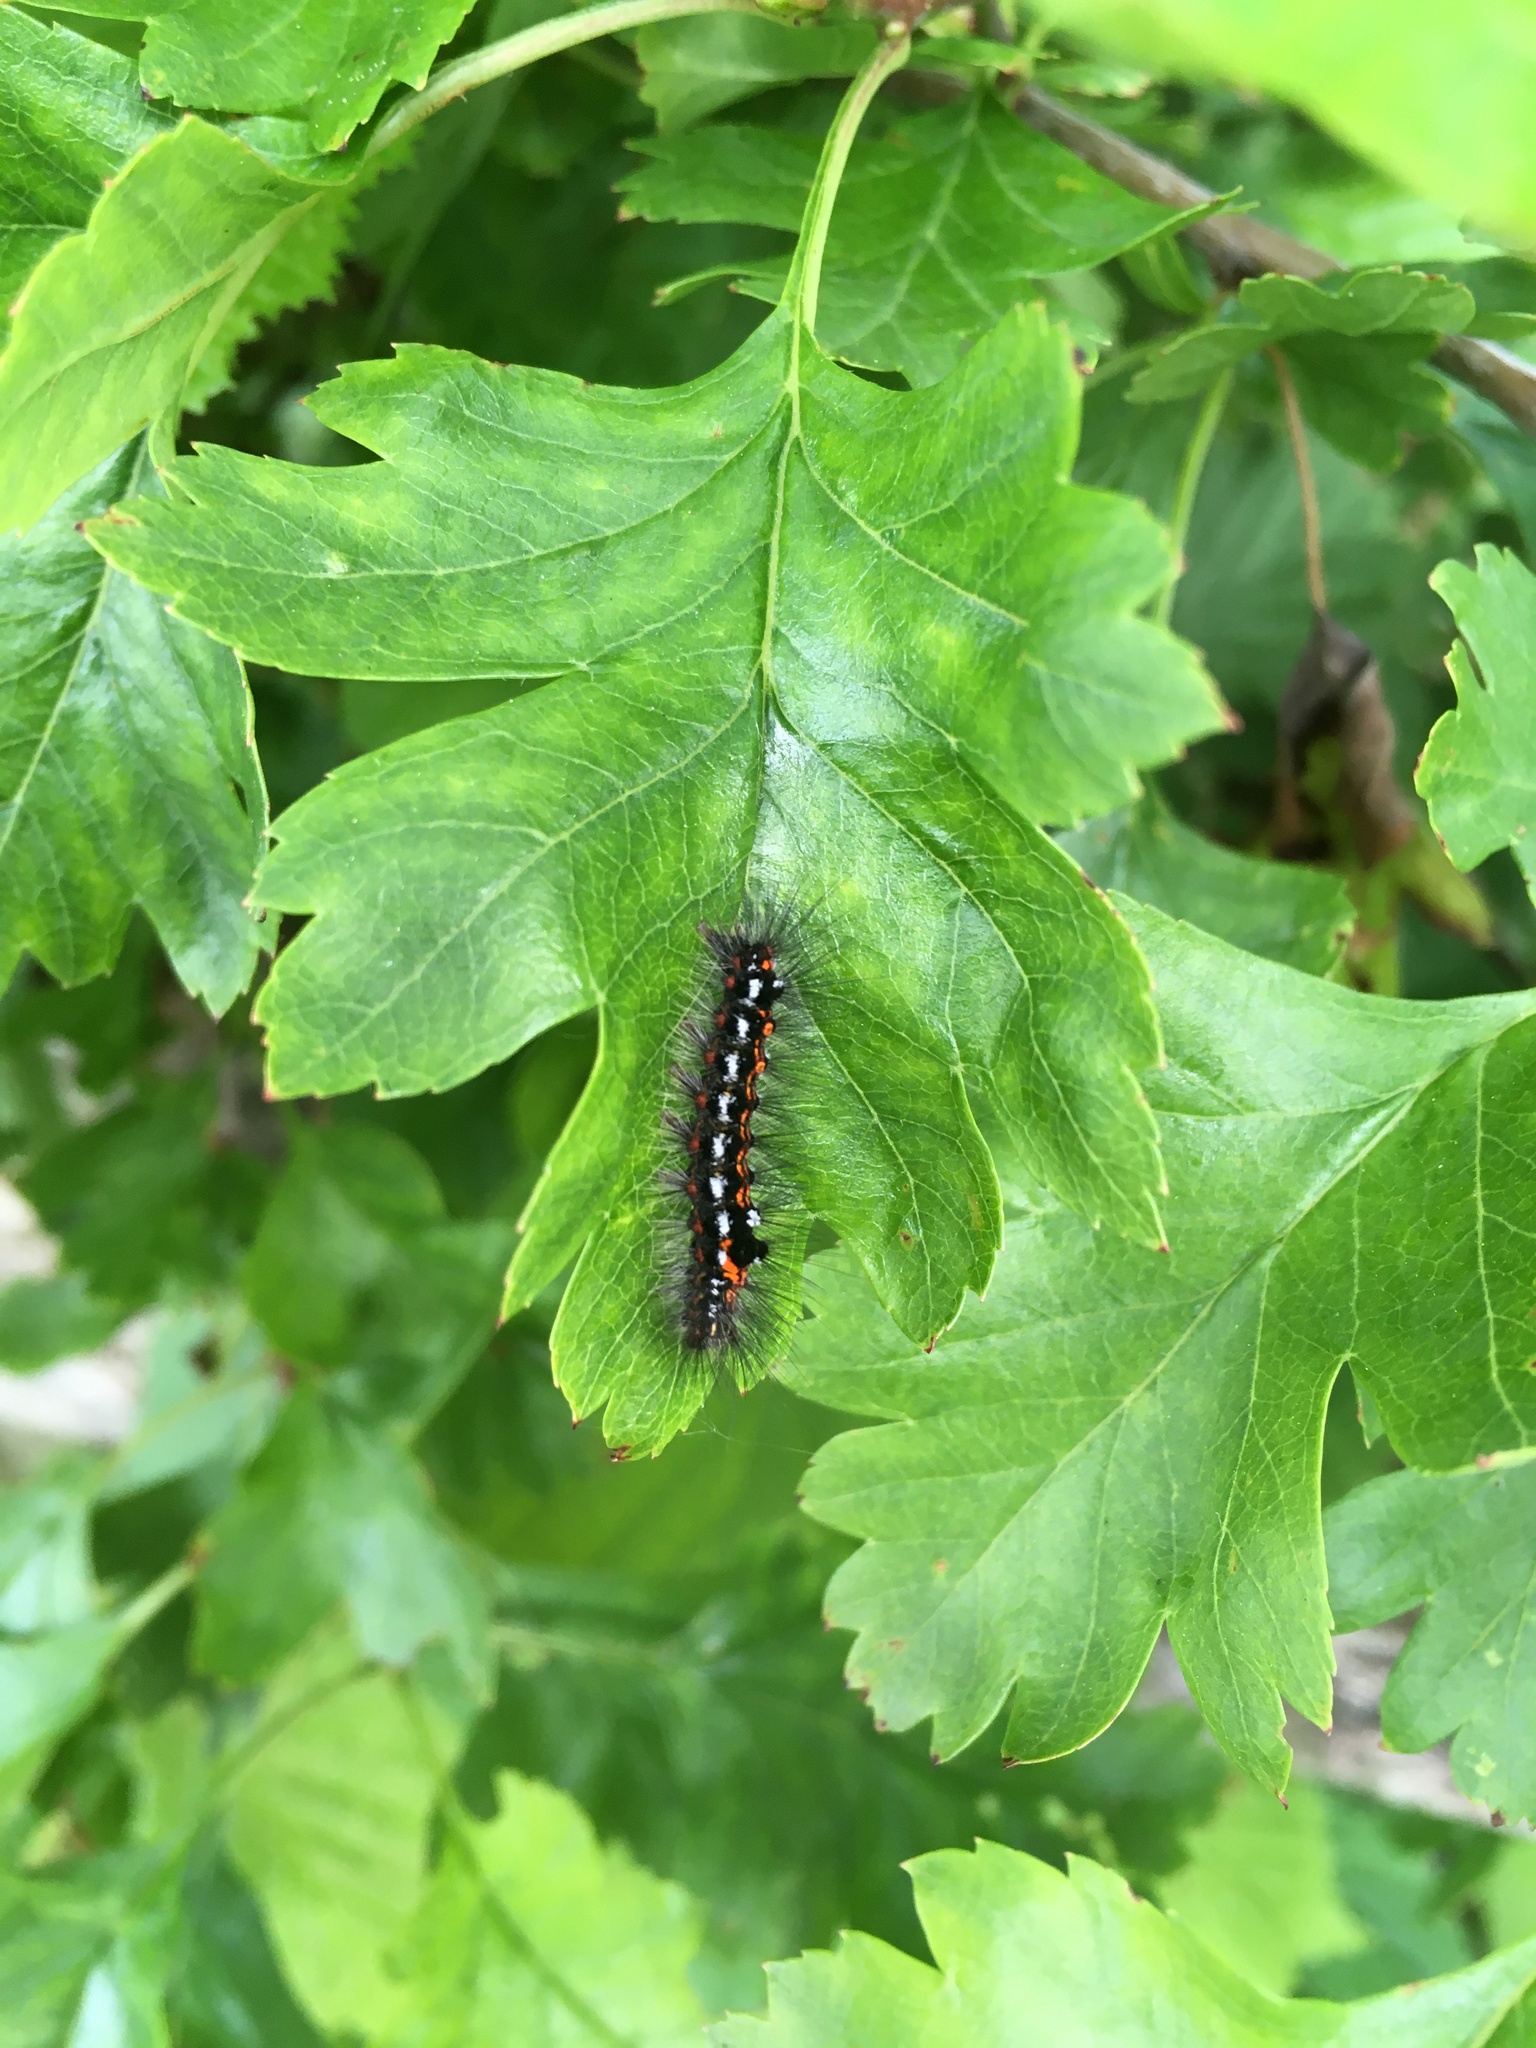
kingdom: Animalia
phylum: Arthropoda
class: Insecta
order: Lepidoptera
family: Erebidae
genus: Sphrageidus
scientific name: Sphrageidus similis
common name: Yellow-tail
